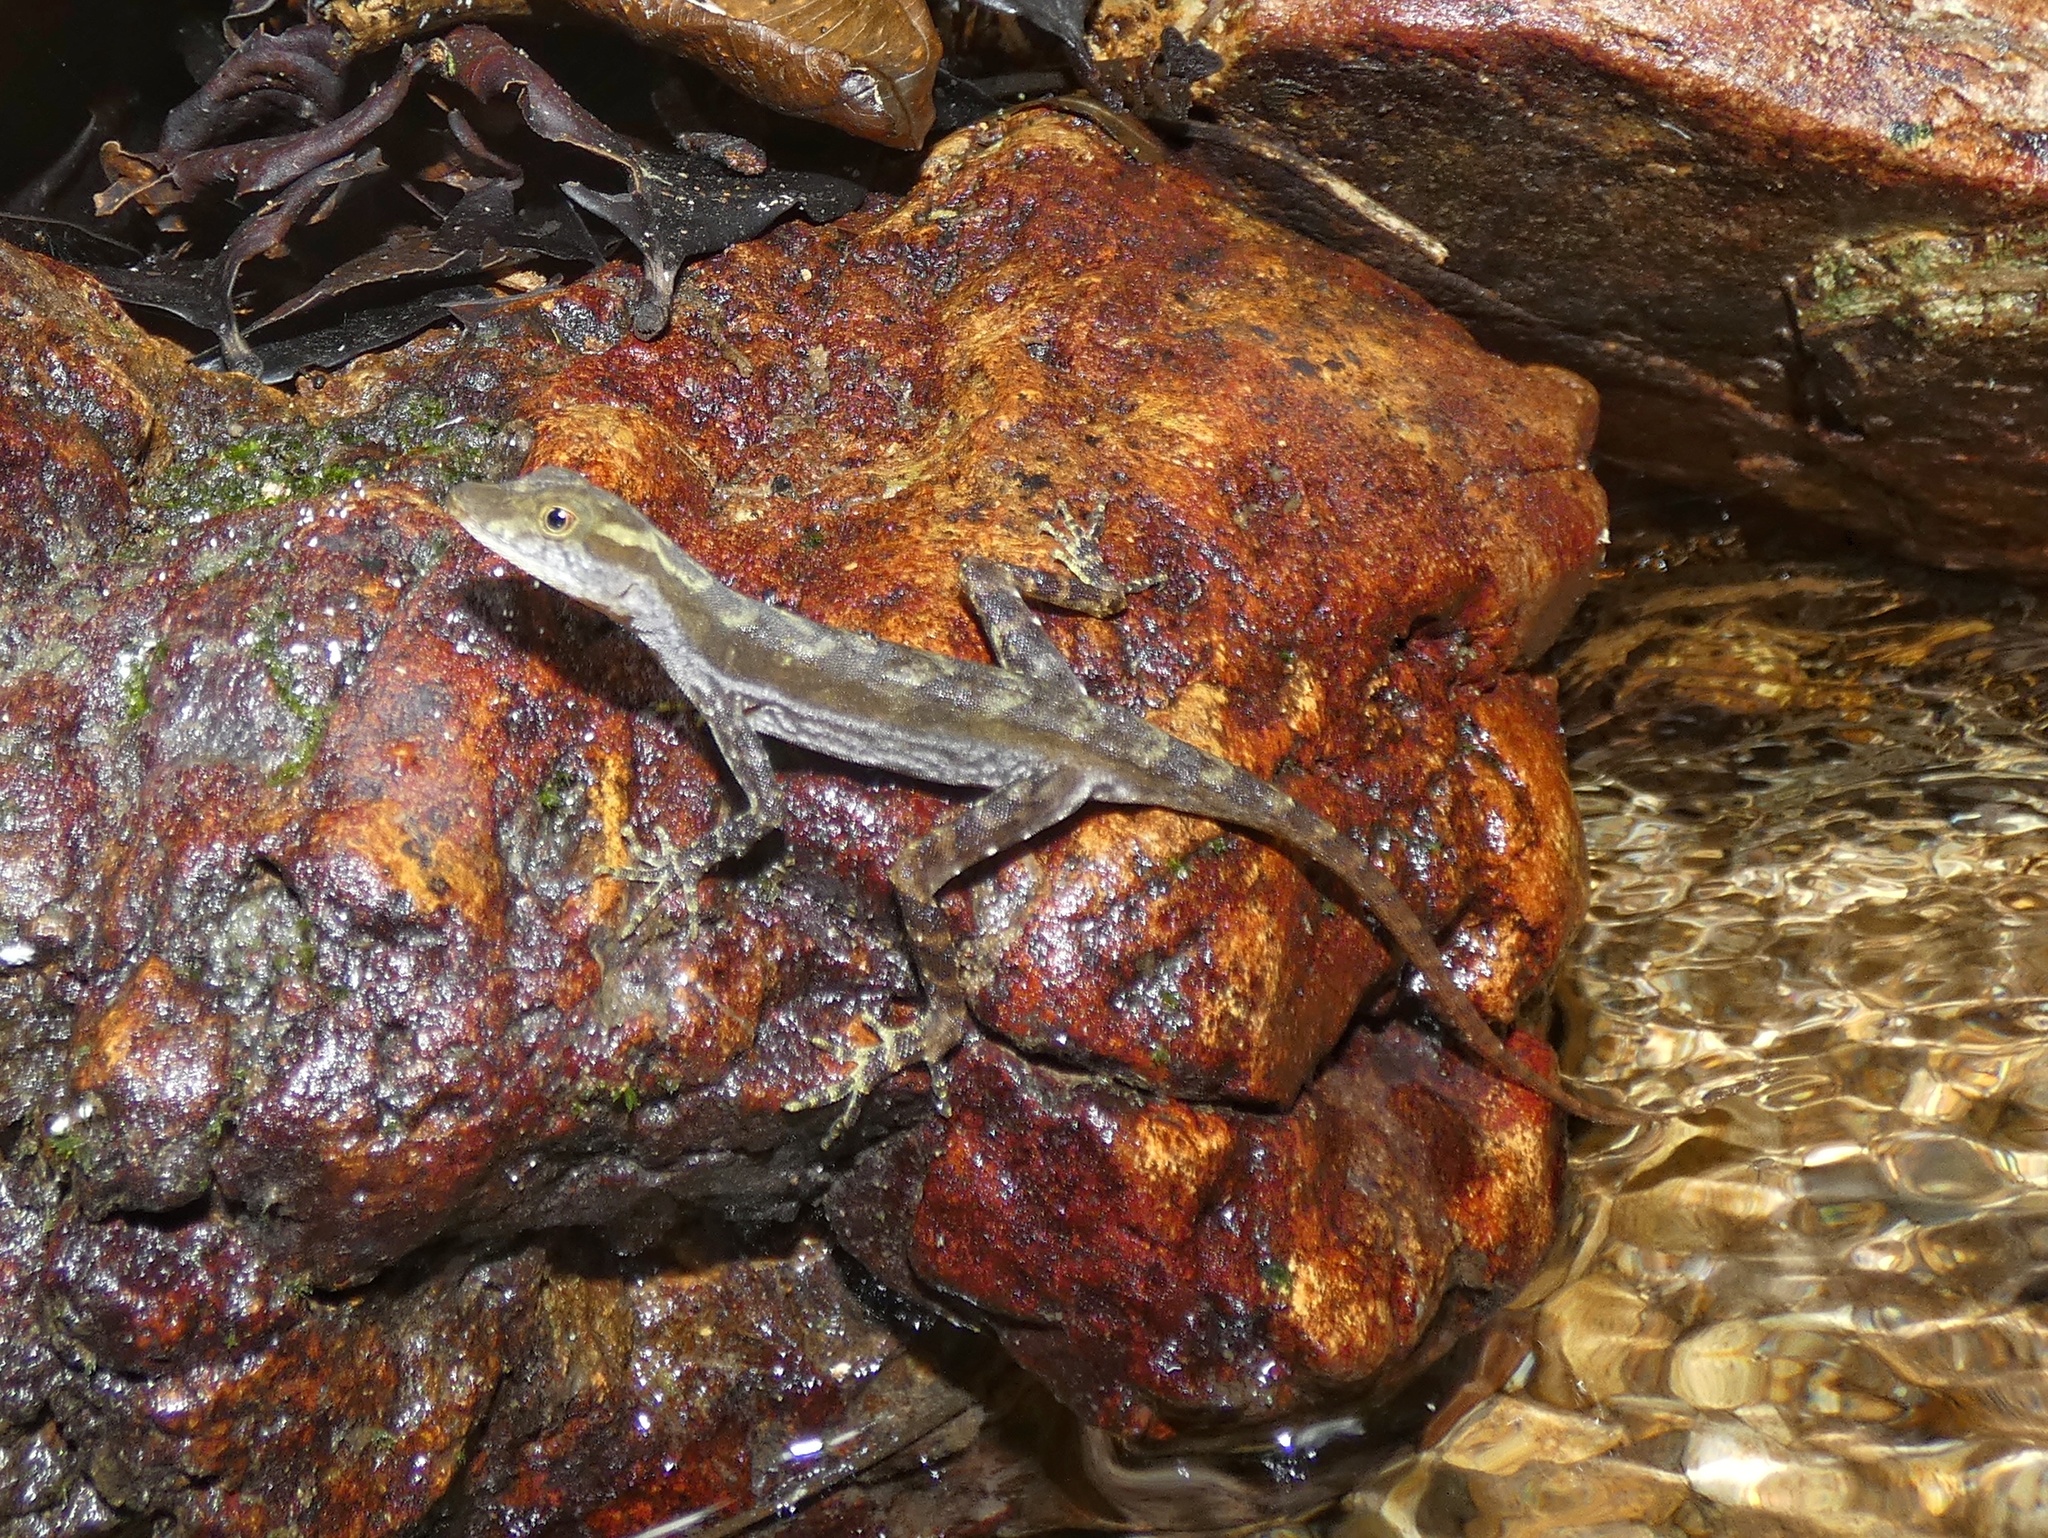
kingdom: Animalia
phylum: Chordata
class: Squamata
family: Dactyloidae
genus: Anolis
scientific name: Anolis poecilopus
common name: Dappled anole
